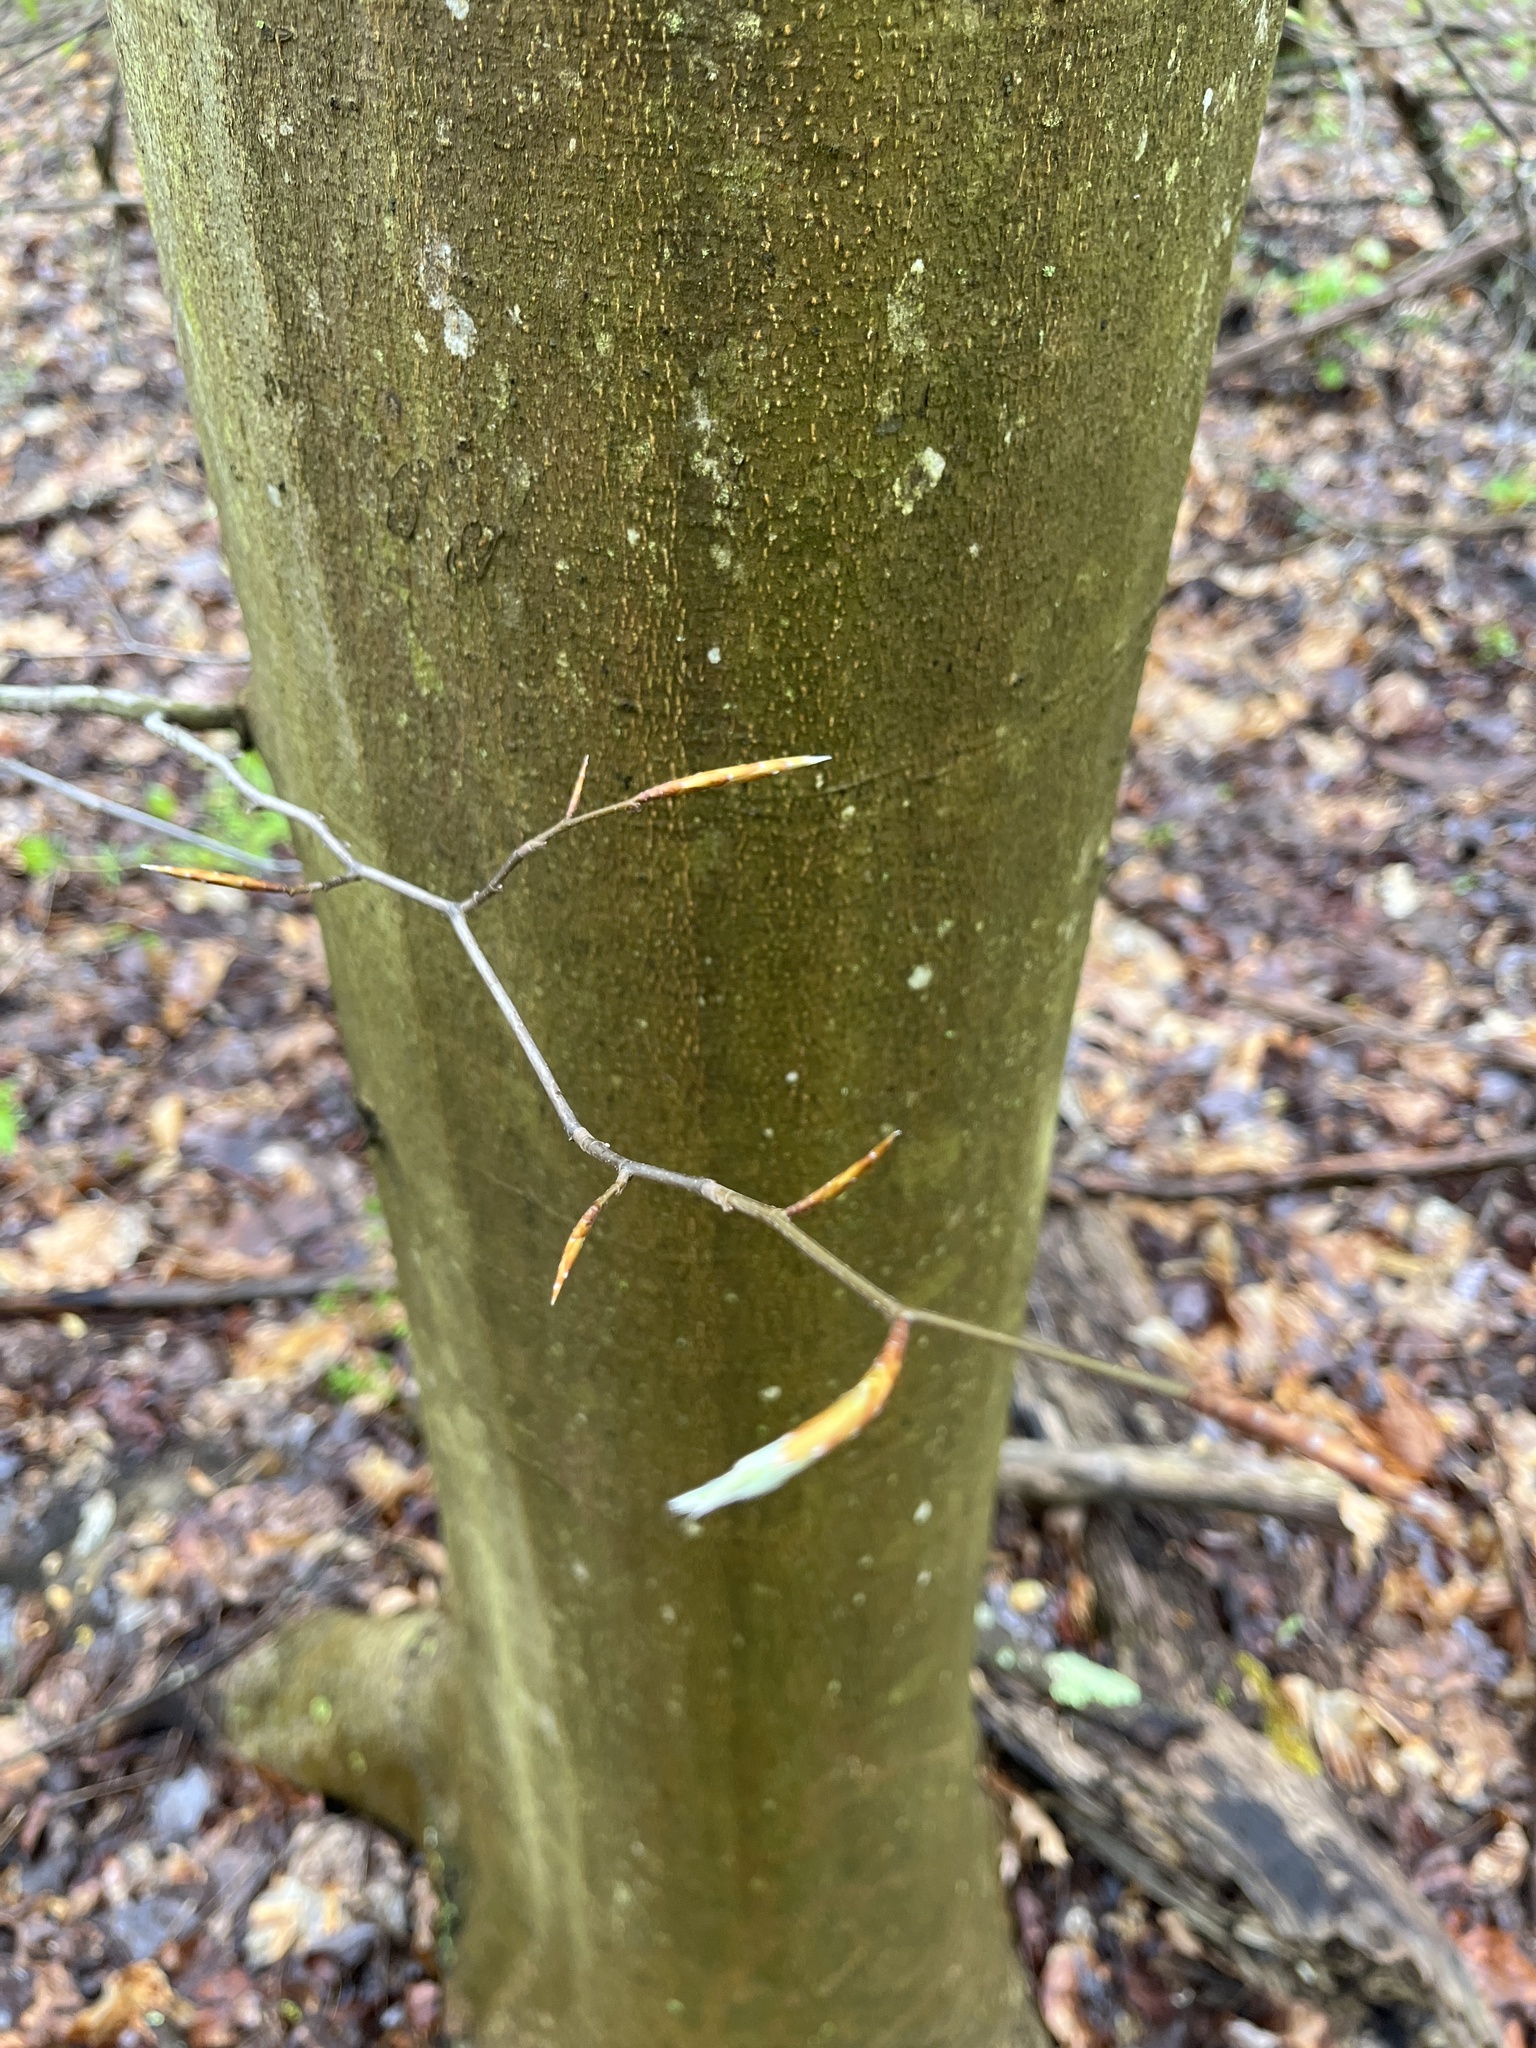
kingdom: Plantae
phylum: Tracheophyta
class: Magnoliopsida
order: Fagales
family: Fagaceae
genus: Fagus
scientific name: Fagus grandifolia
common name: American beech
